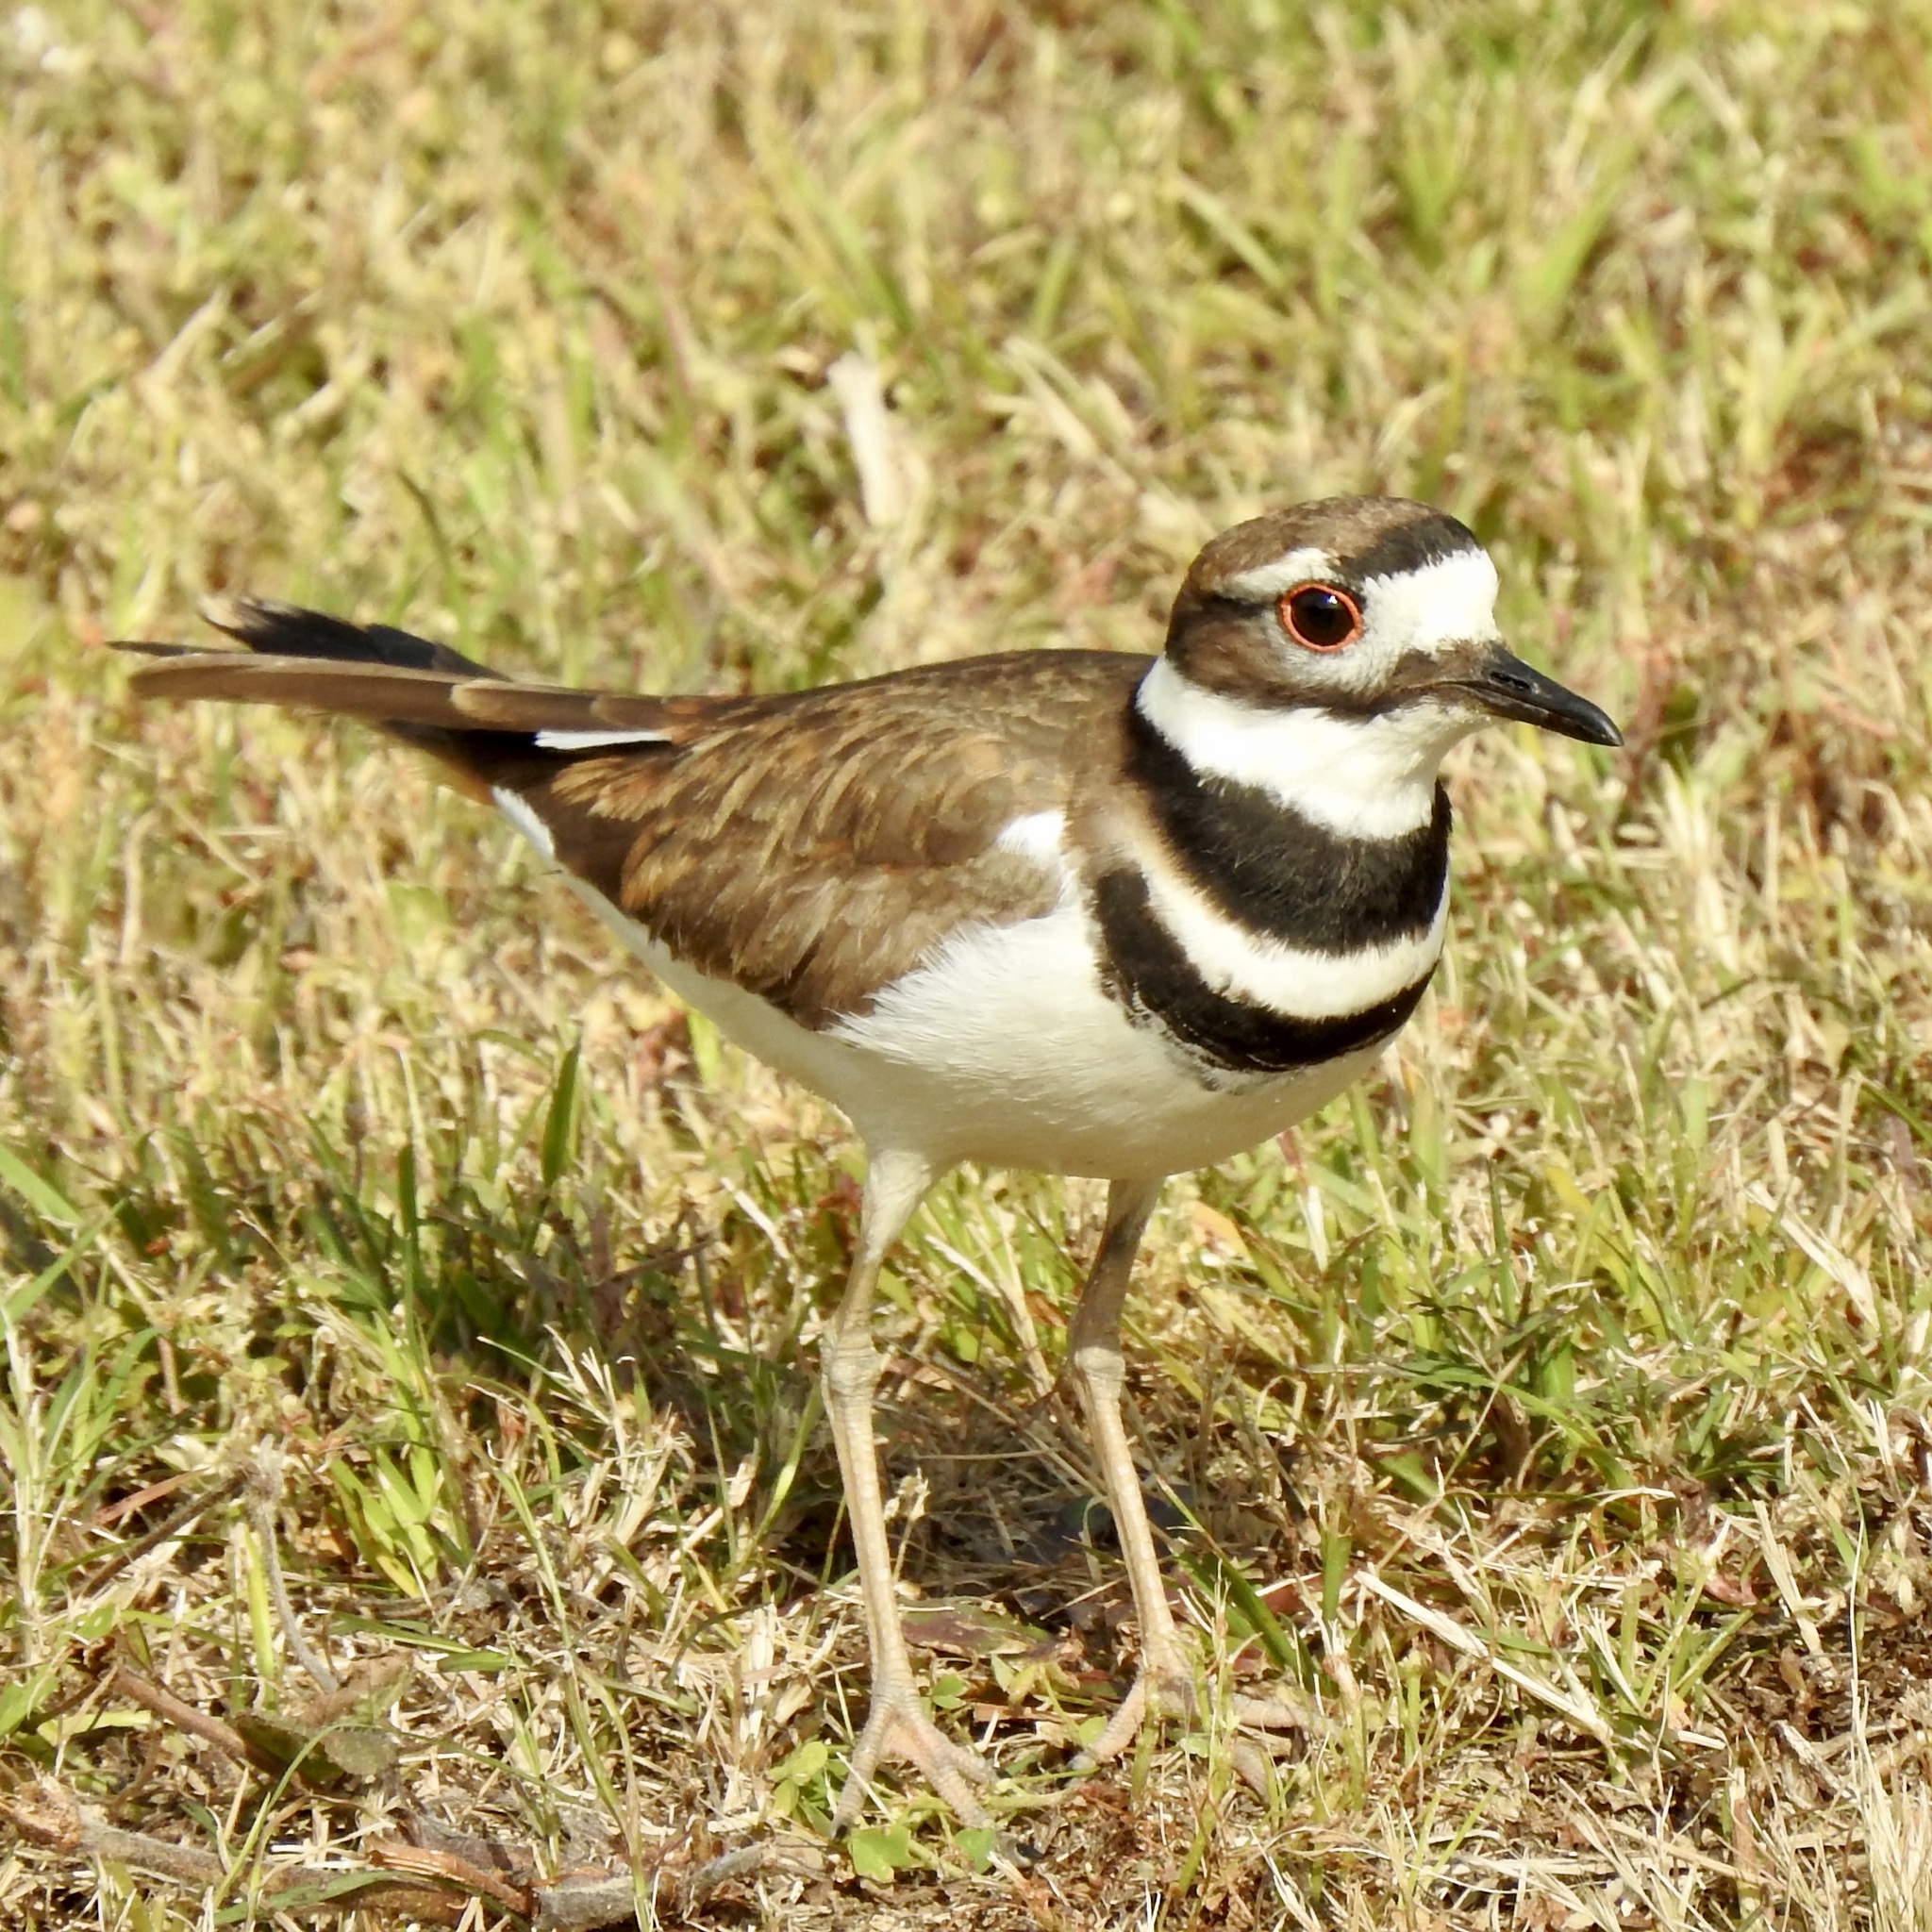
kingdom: Animalia
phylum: Chordata
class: Aves
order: Charadriiformes
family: Charadriidae
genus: Charadrius
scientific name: Charadrius vociferus
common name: Killdeer
